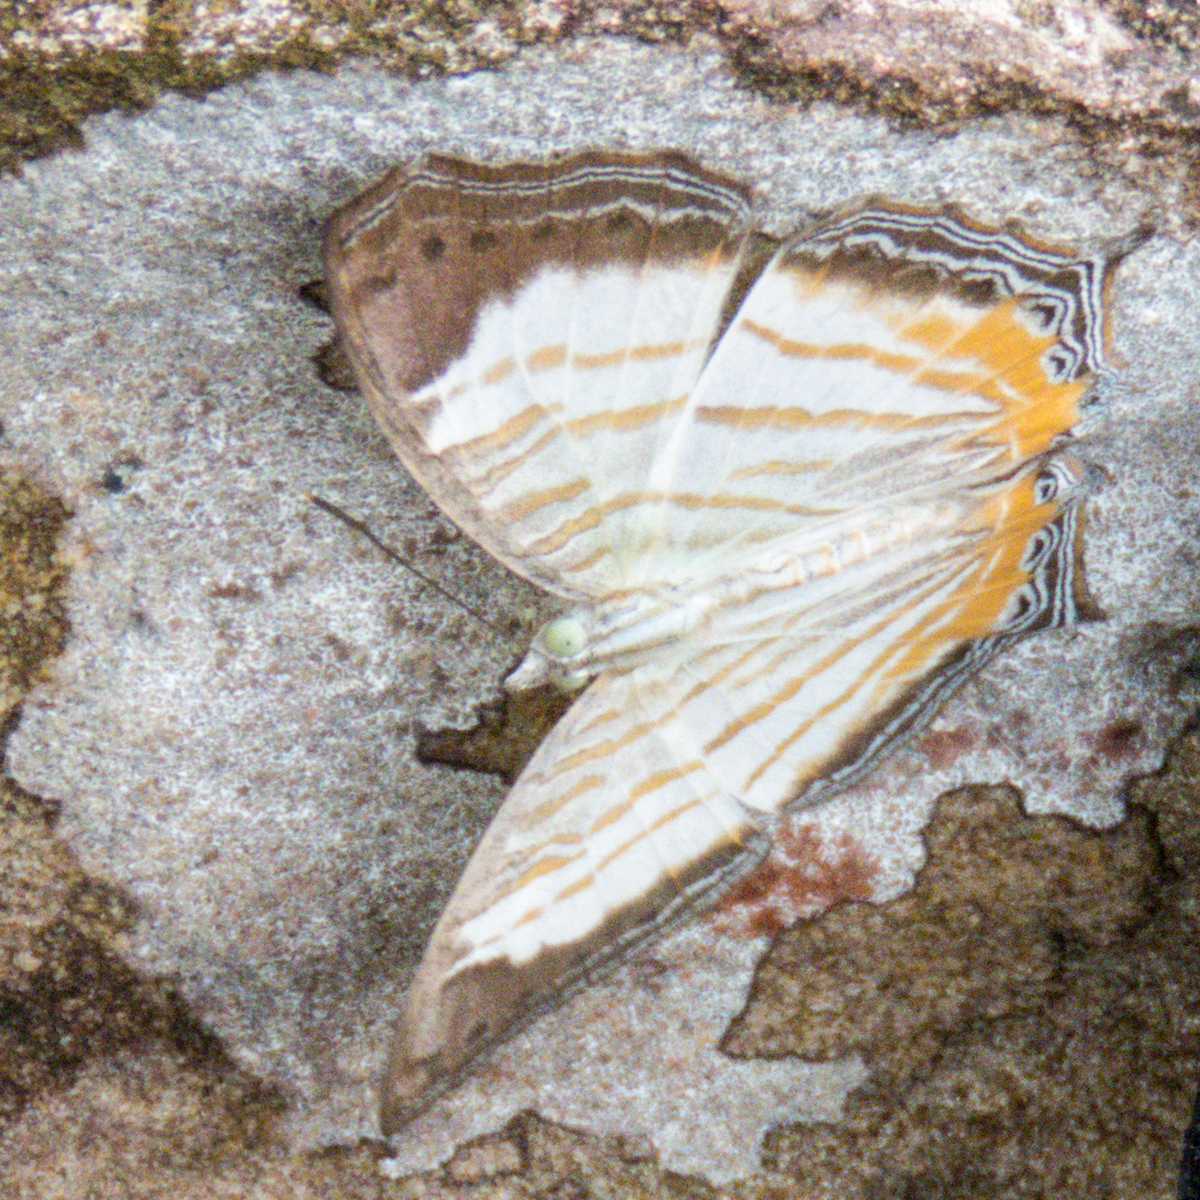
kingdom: Animalia
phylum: Arthropoda
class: Insecta
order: Lepidoptera
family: Nymphalidae
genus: Cyrestis
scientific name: Cyrestis themire
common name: Little mapwing
